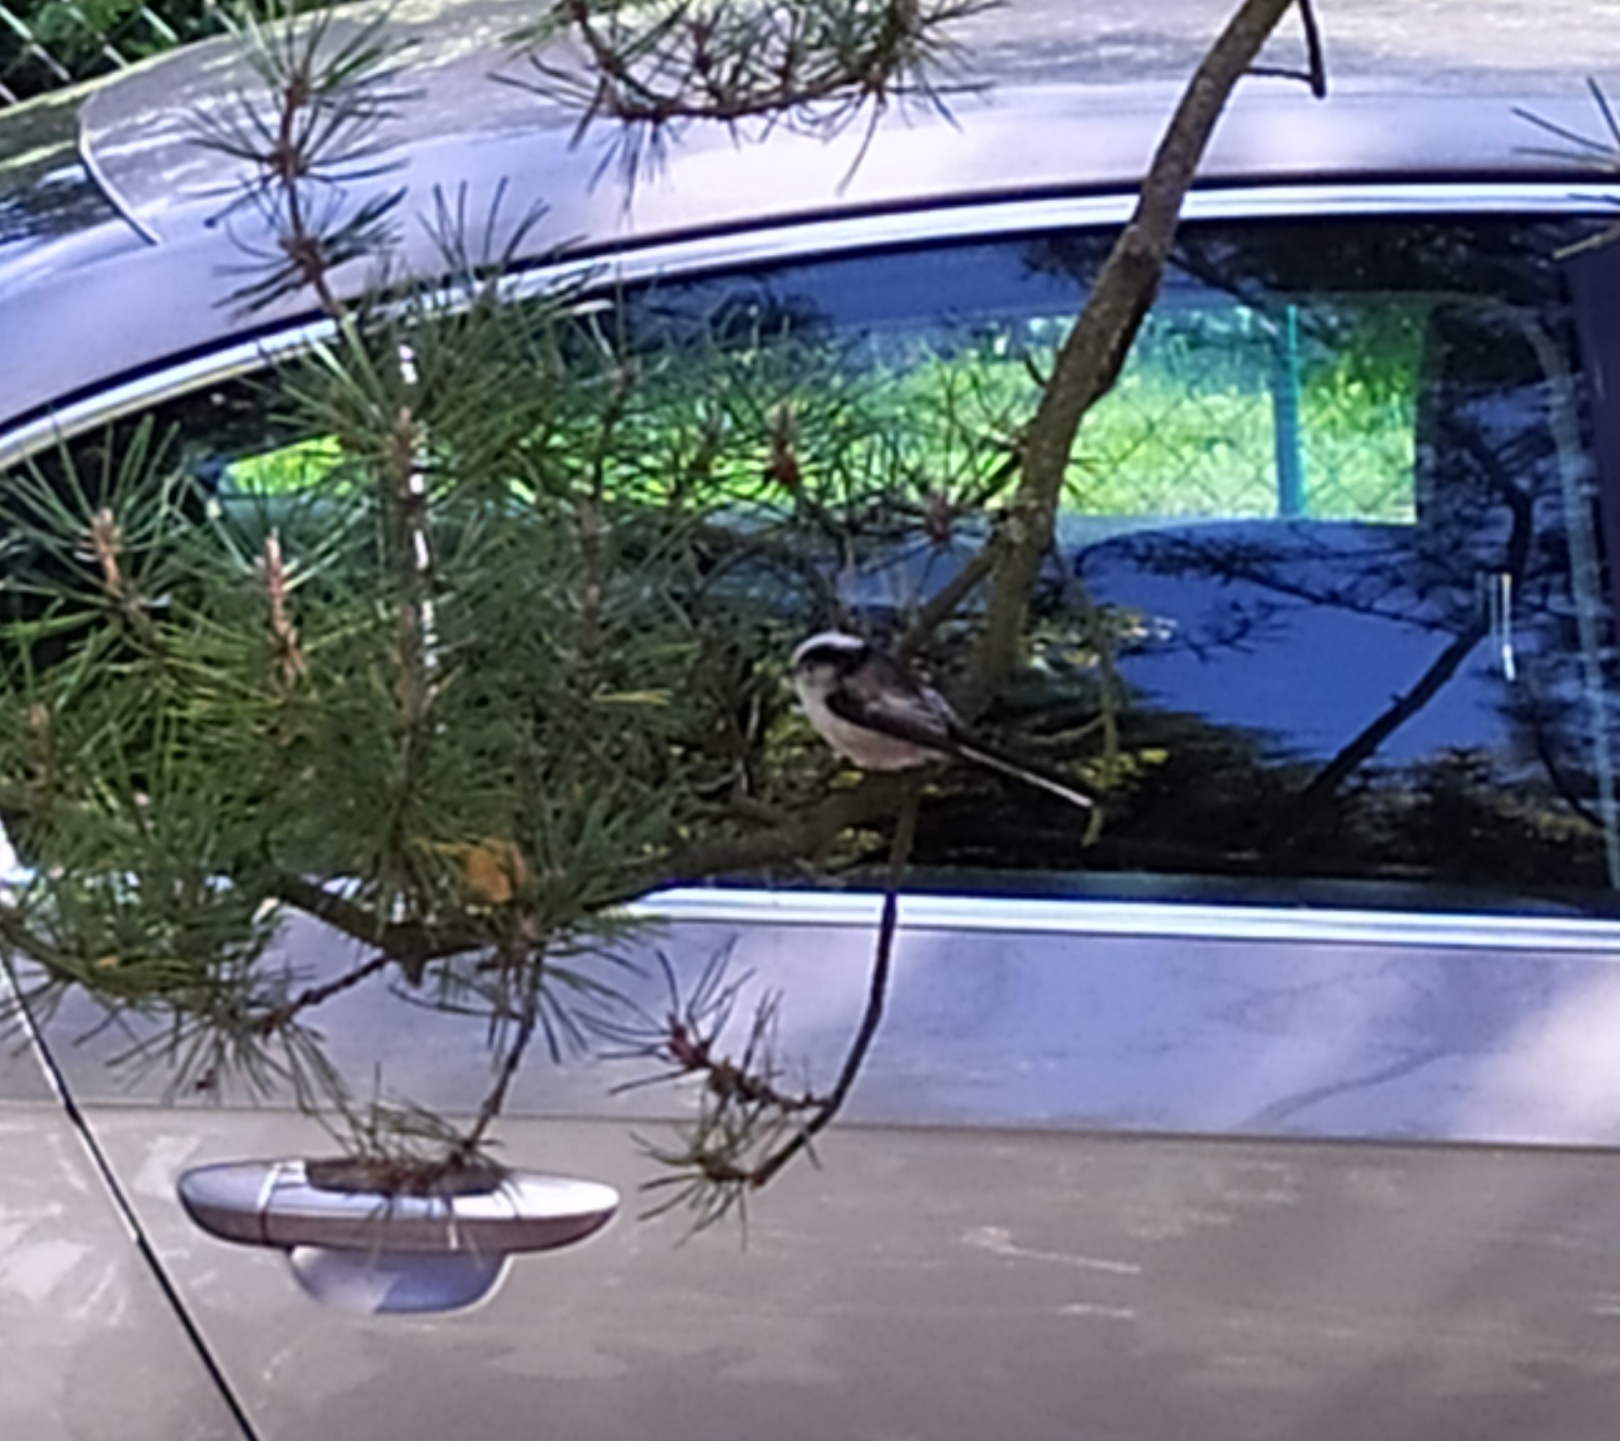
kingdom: Animalia
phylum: Chordata
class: Aves
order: Passeriformes
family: Aegithalidae
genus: Aegithalos
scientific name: Aegithalos caudatus
